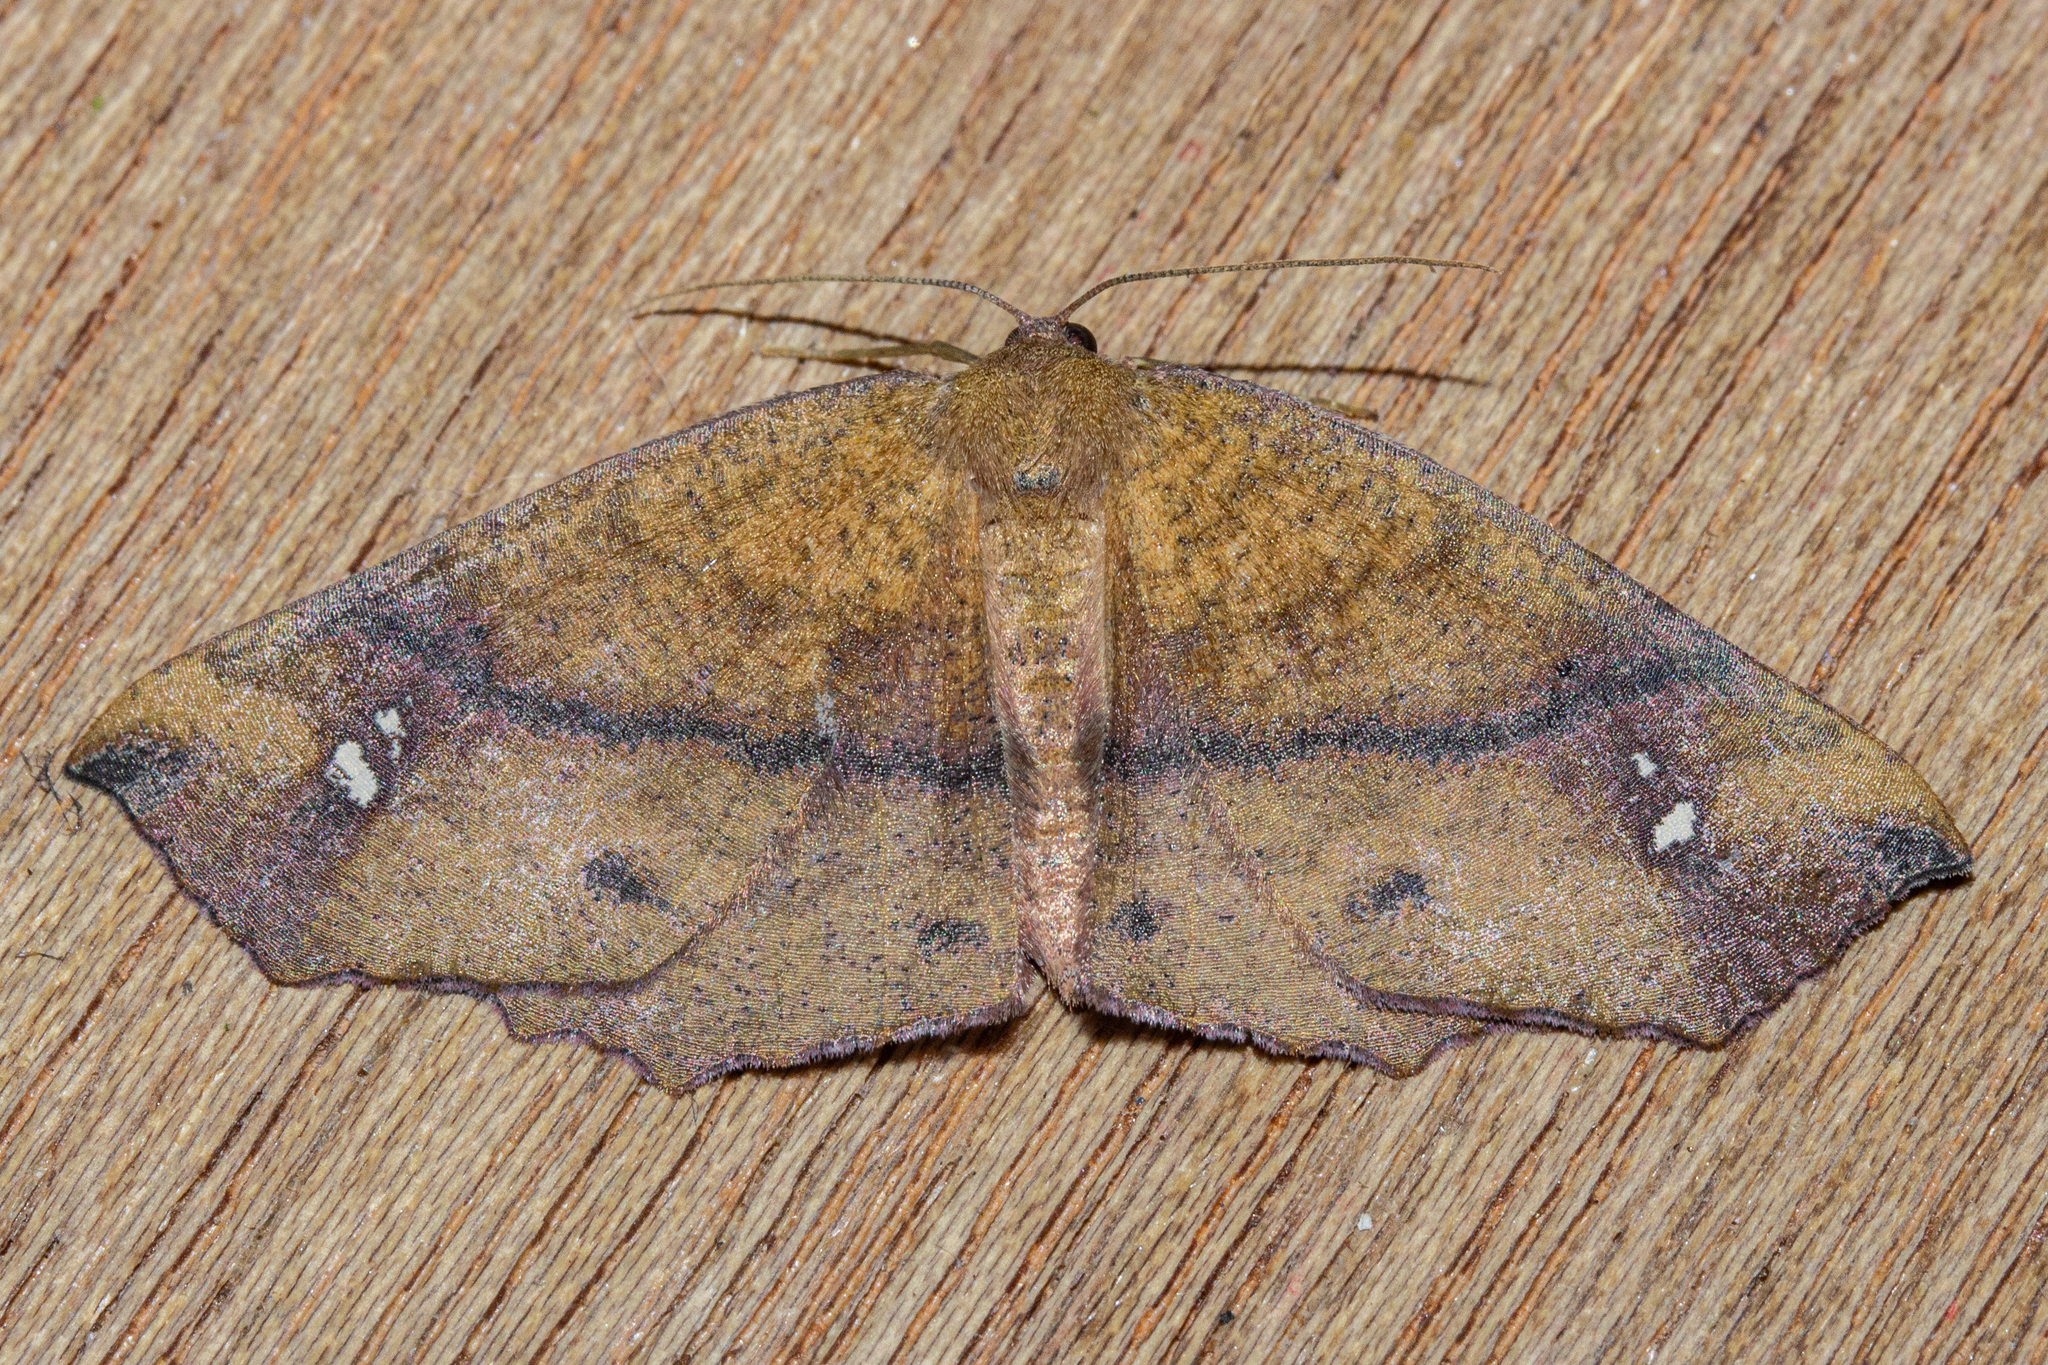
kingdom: Animalia
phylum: Arthropoda
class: Insecta
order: Lepidoptera
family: Geometridae
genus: Xyridacma
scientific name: Xyridacma ustaria
